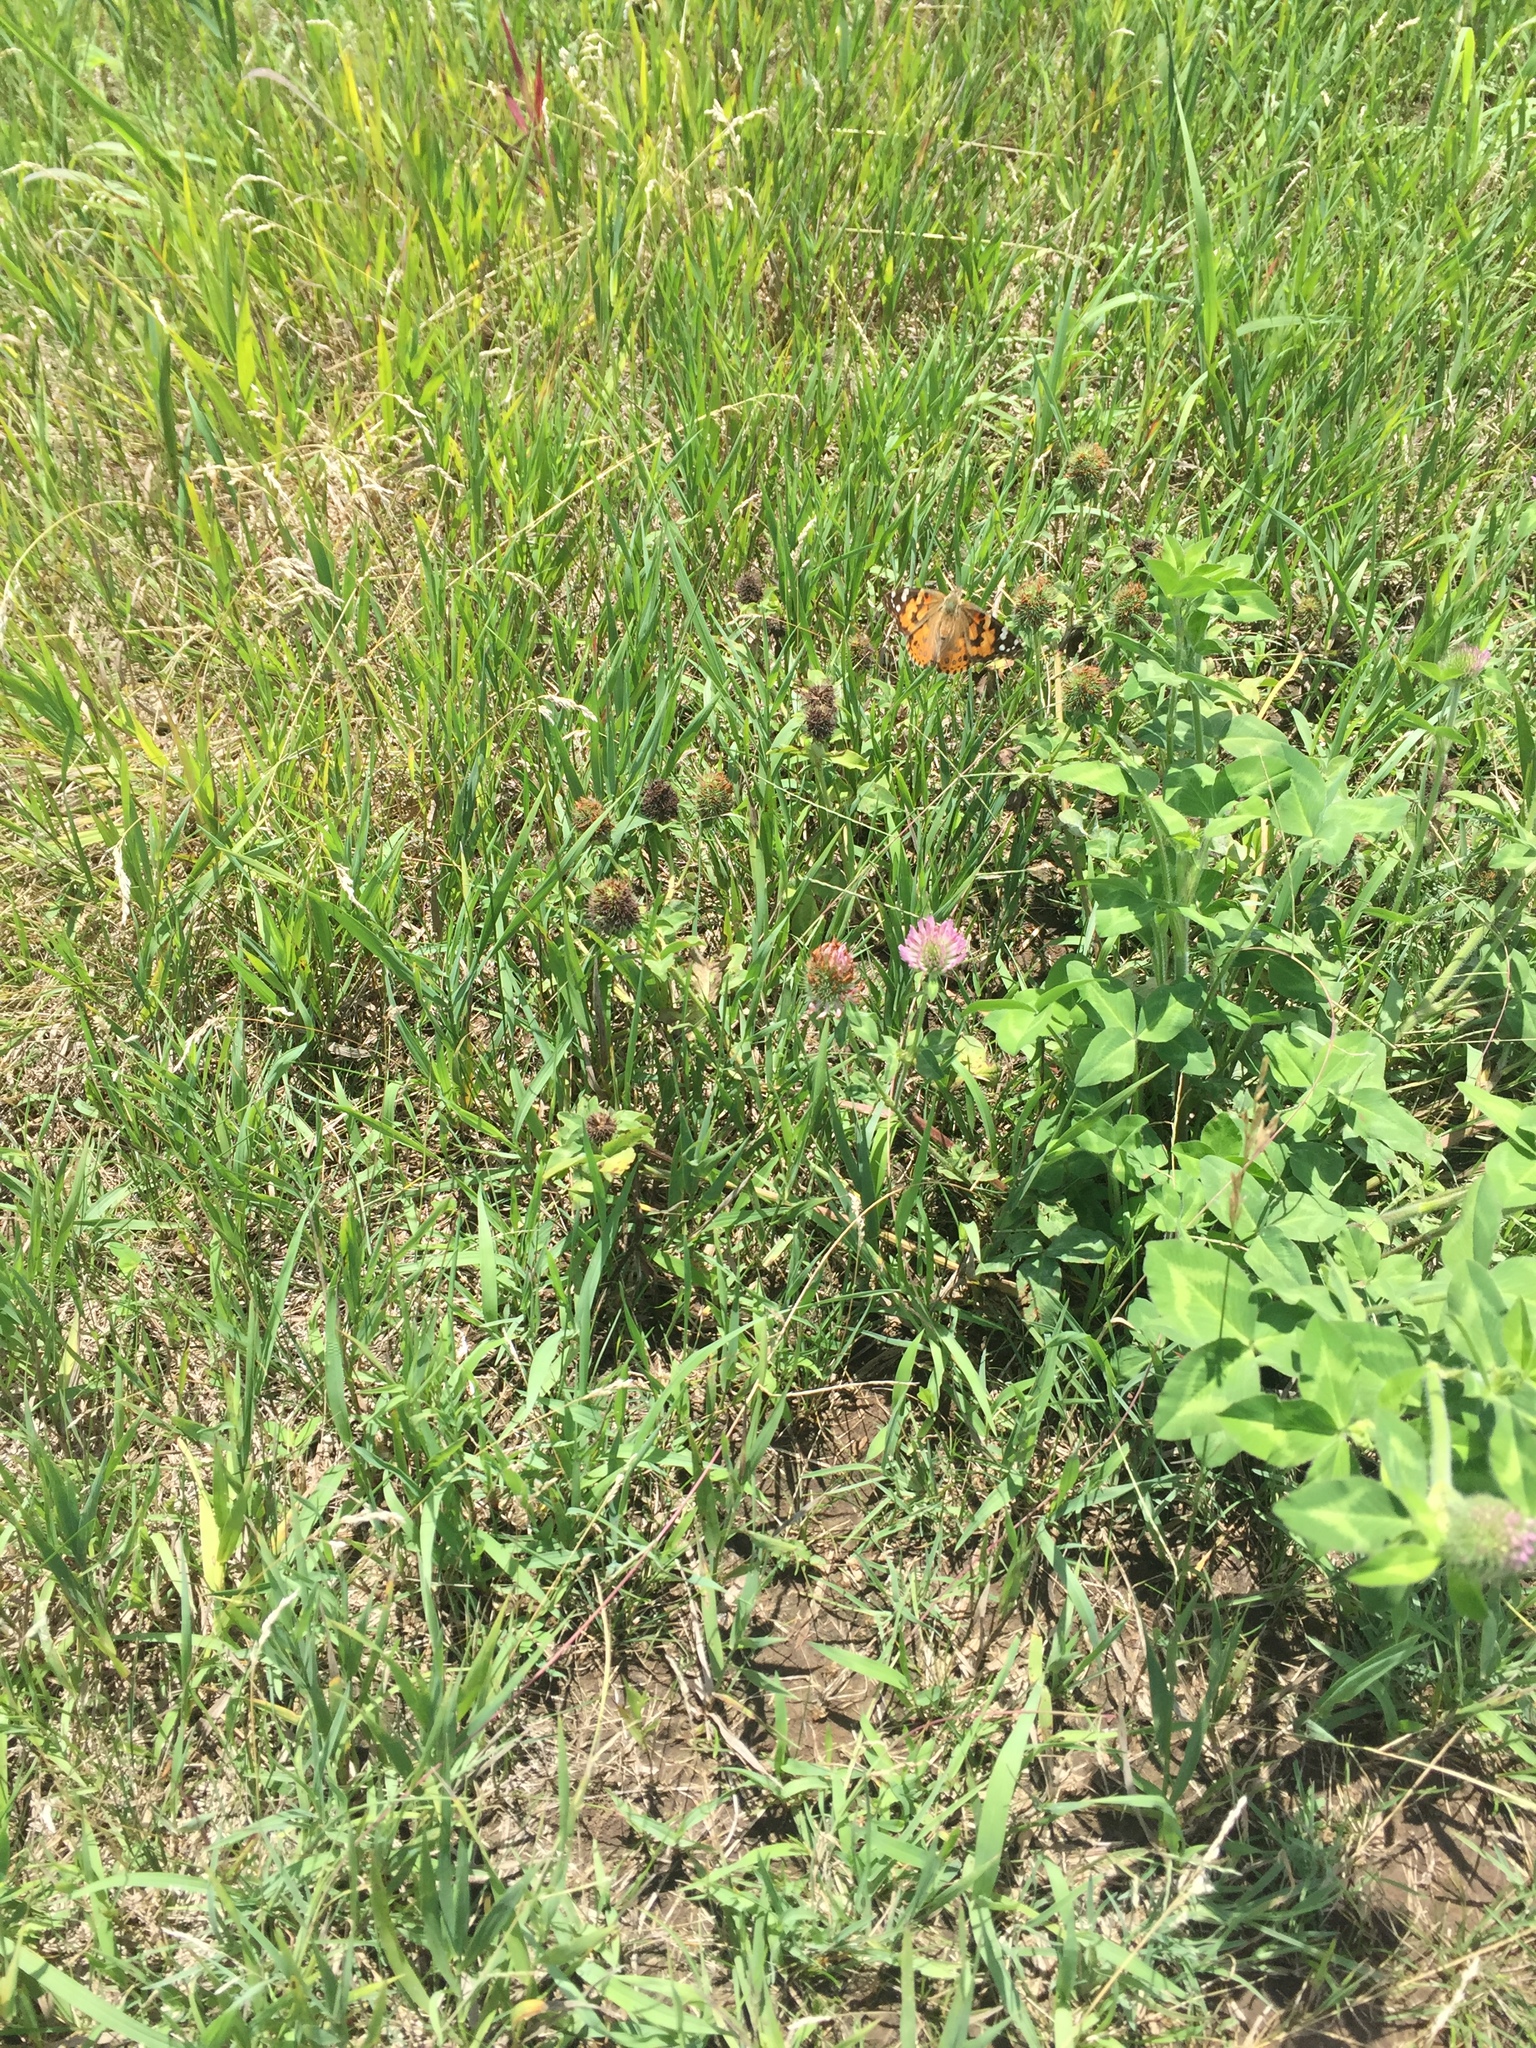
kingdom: Animalia
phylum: Arthropoda
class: Insecta
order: Lepidoptera
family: Nymphalidae
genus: Vanessa
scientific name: Vanessa cardui
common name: Painted lady
